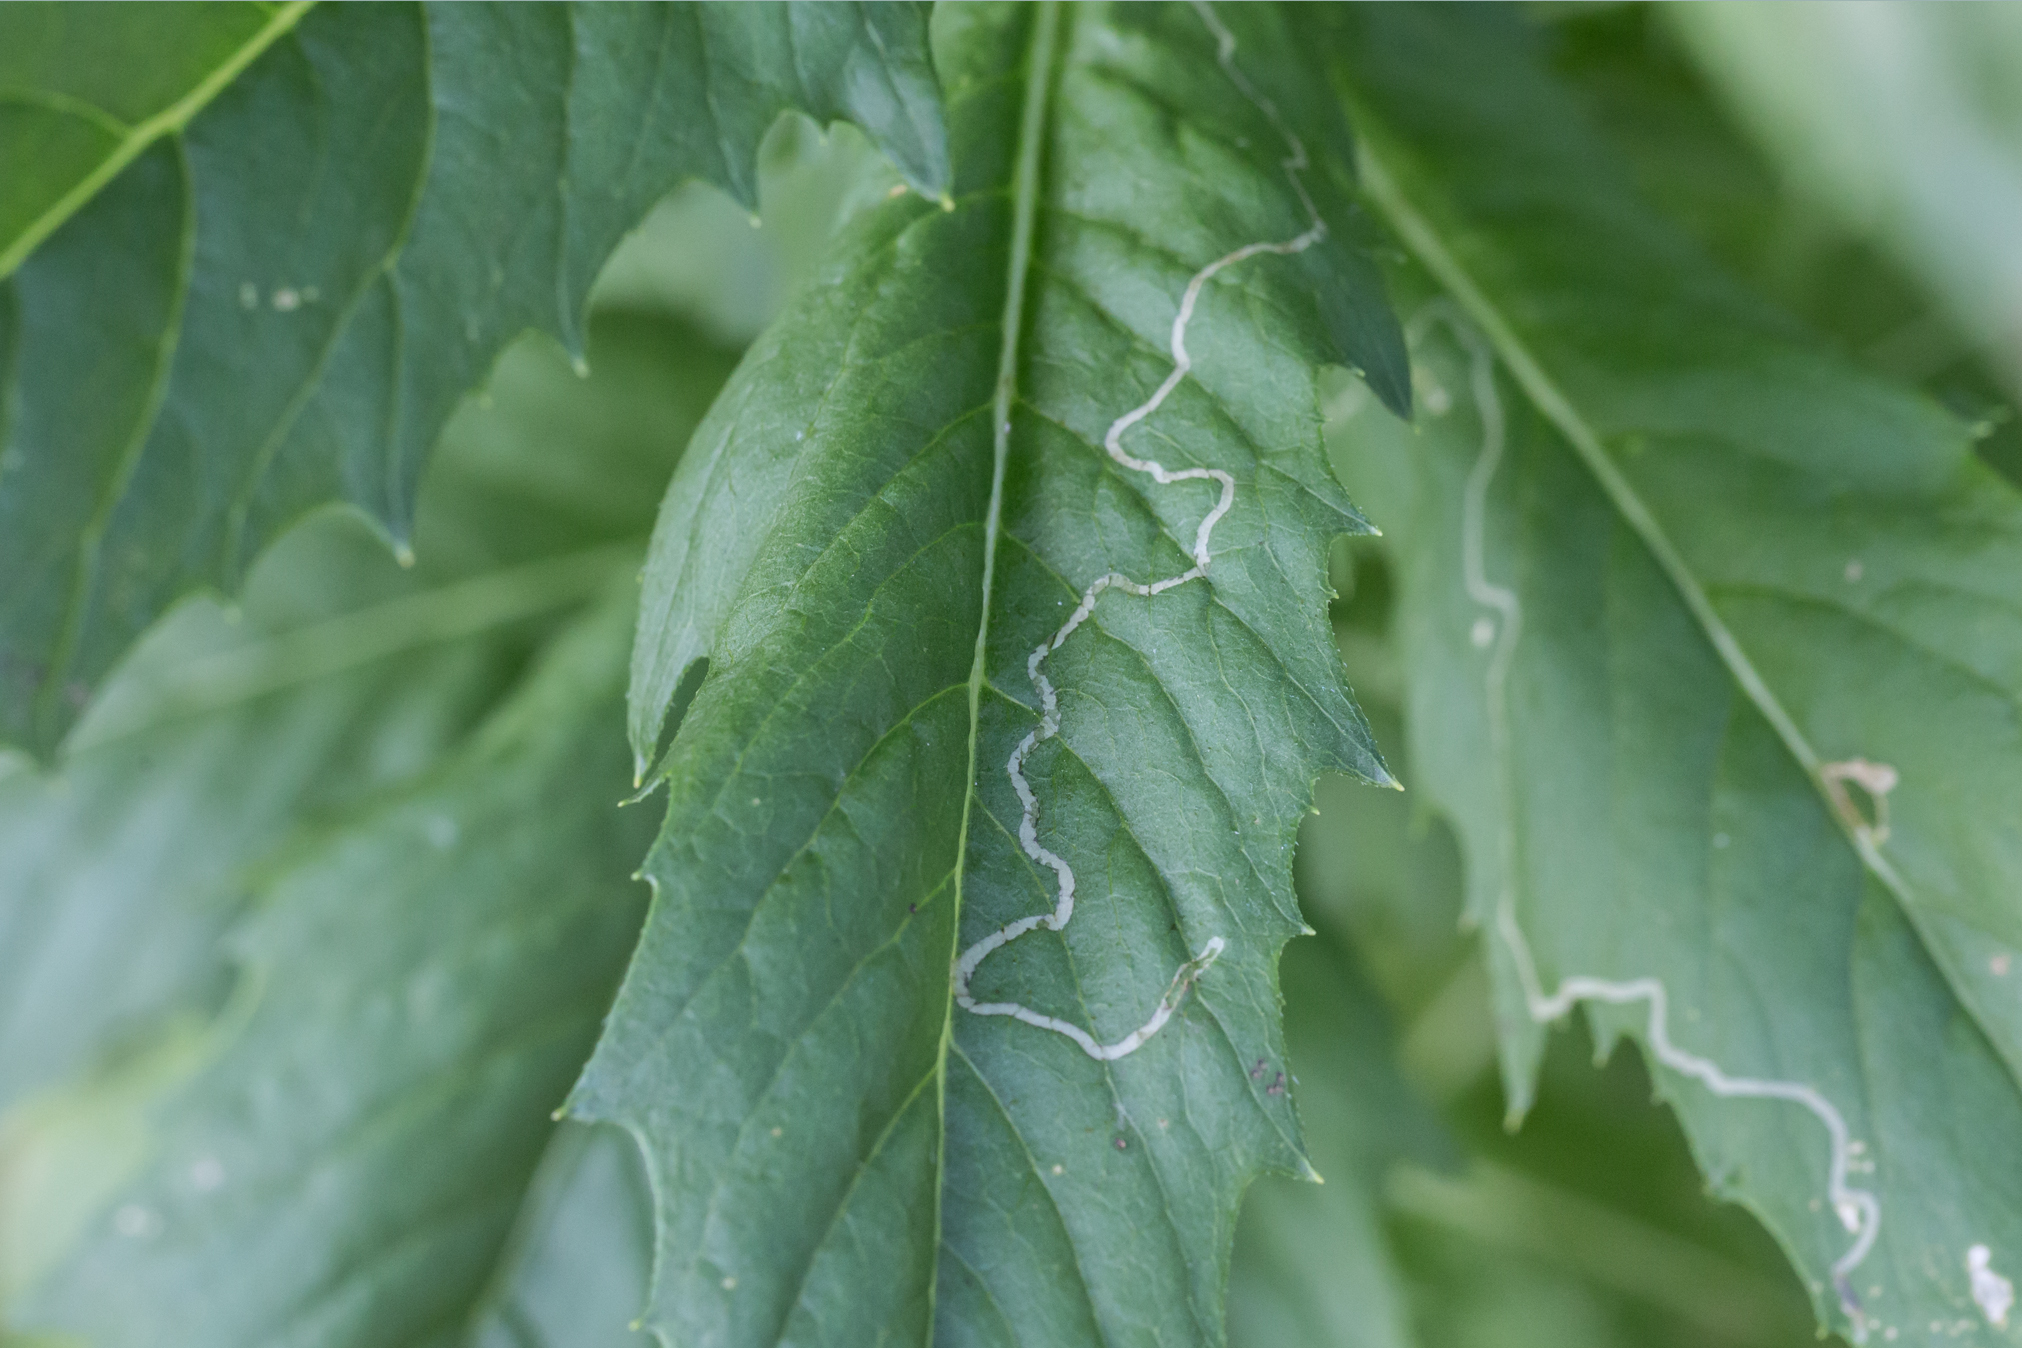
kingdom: Animalia
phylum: Arthropoda
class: Insecta
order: Lepidoptera
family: Gracillariidae
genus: Phyllocnistis
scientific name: Phyllocnistis insignis
